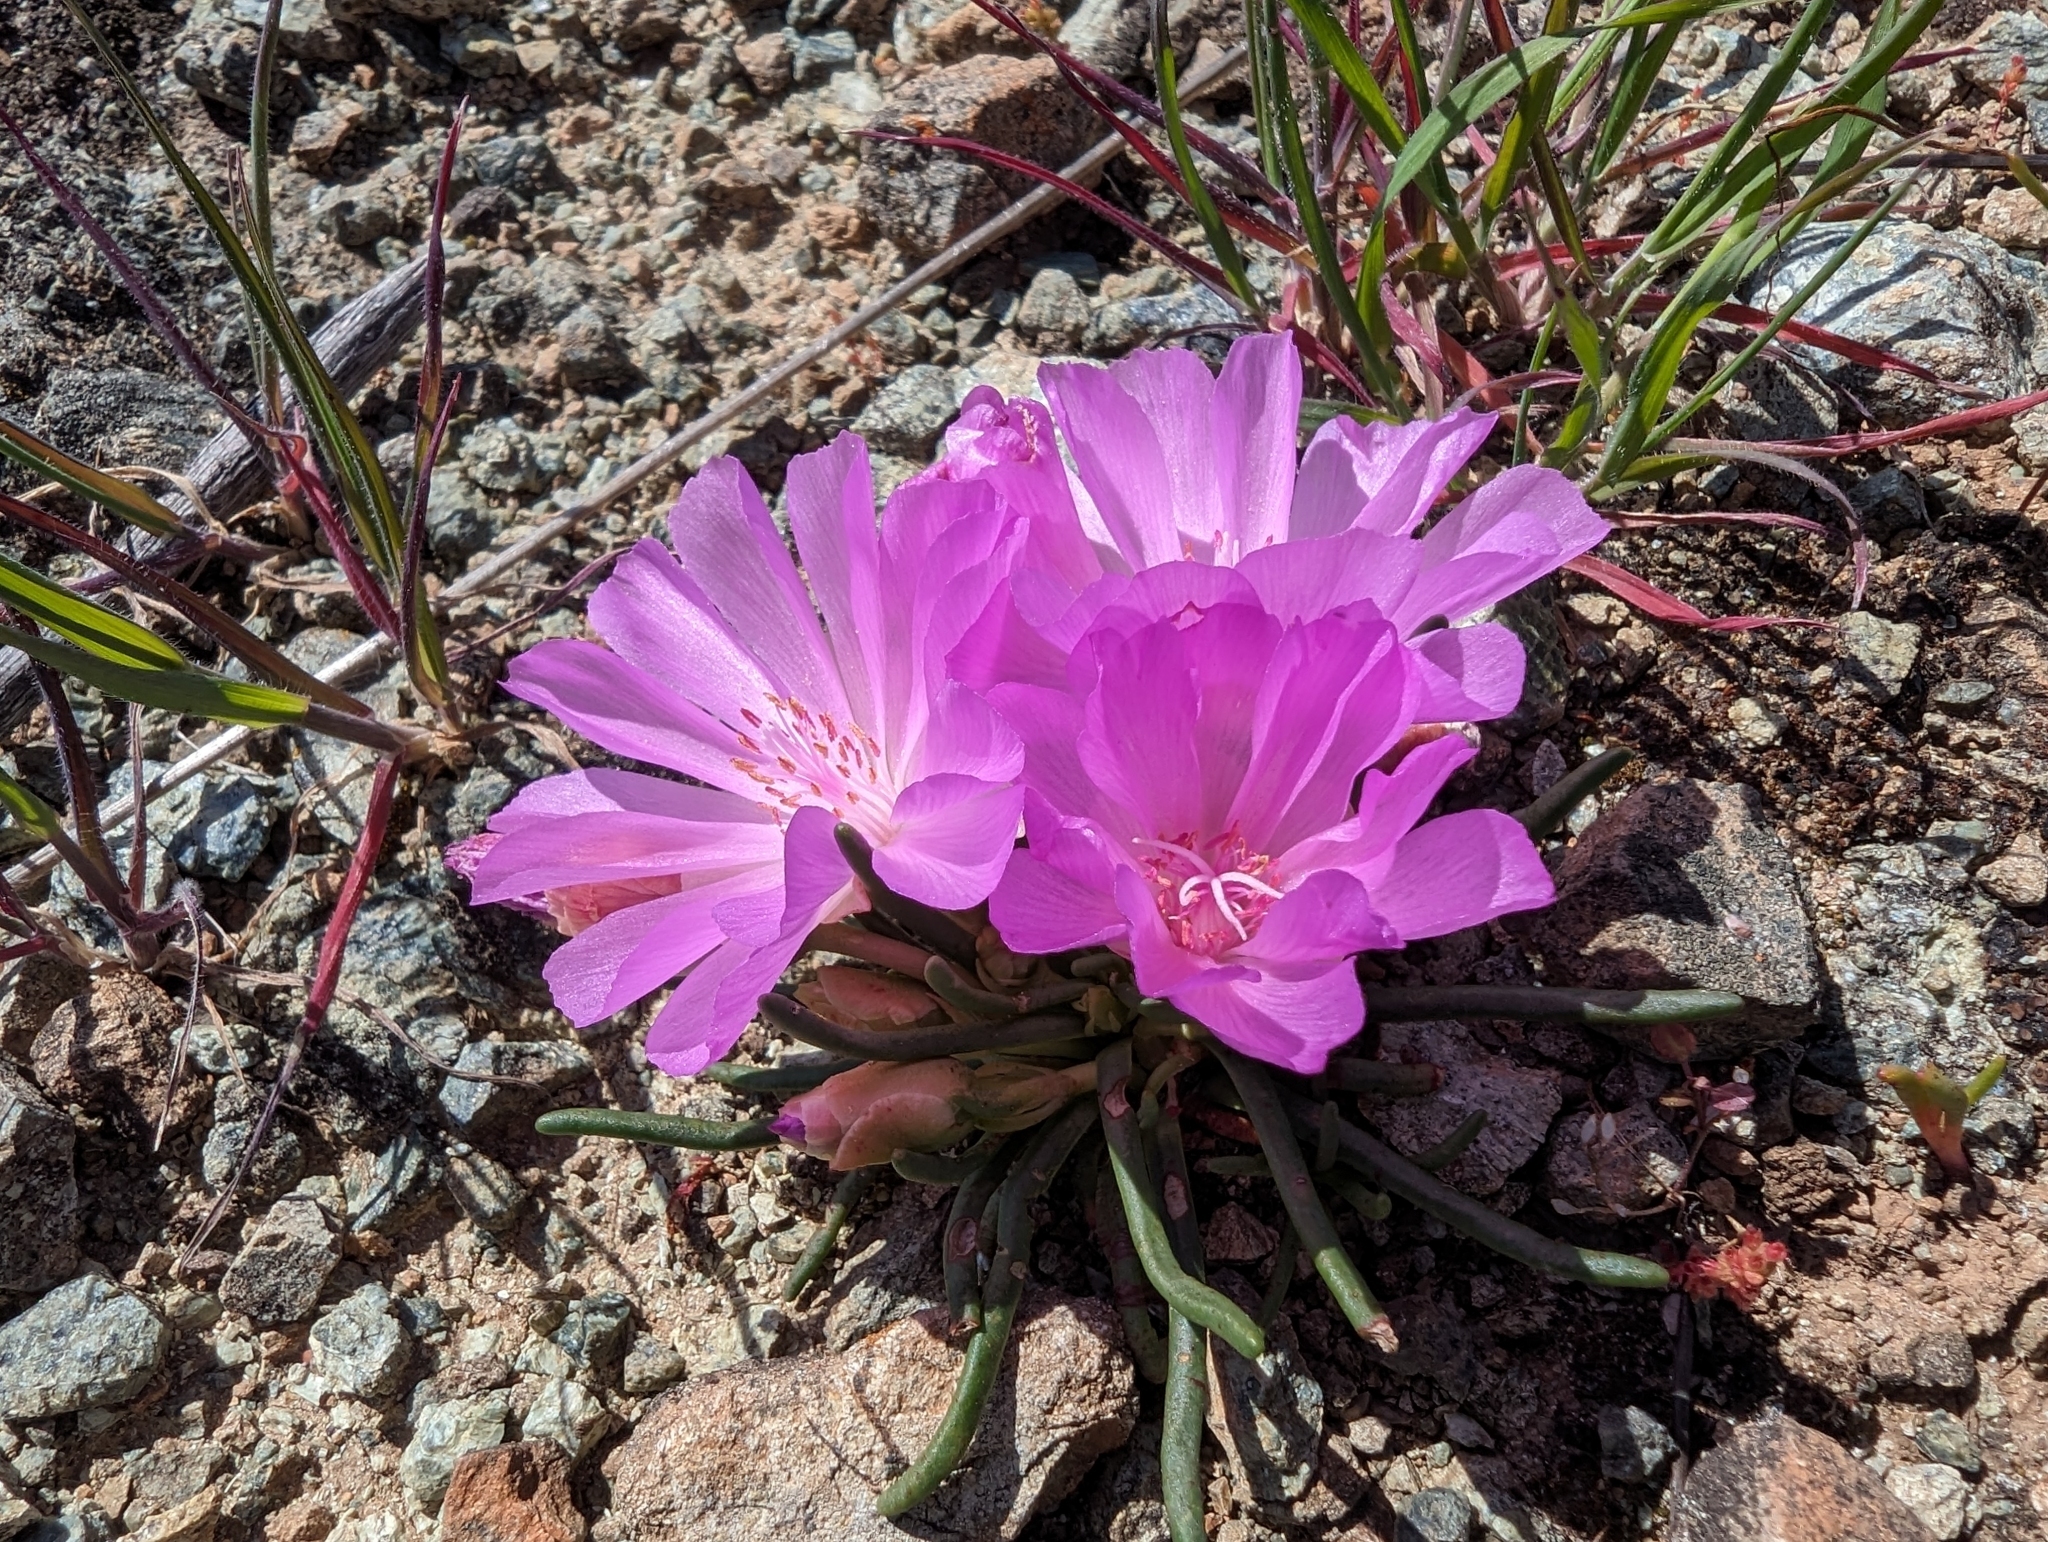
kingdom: Plantae
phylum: Tracheophyta
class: Magnoliopsida
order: Caryophyllales
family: Montiaceae
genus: Lewisia
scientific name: Lewisia rediviva
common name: Bitter-root
